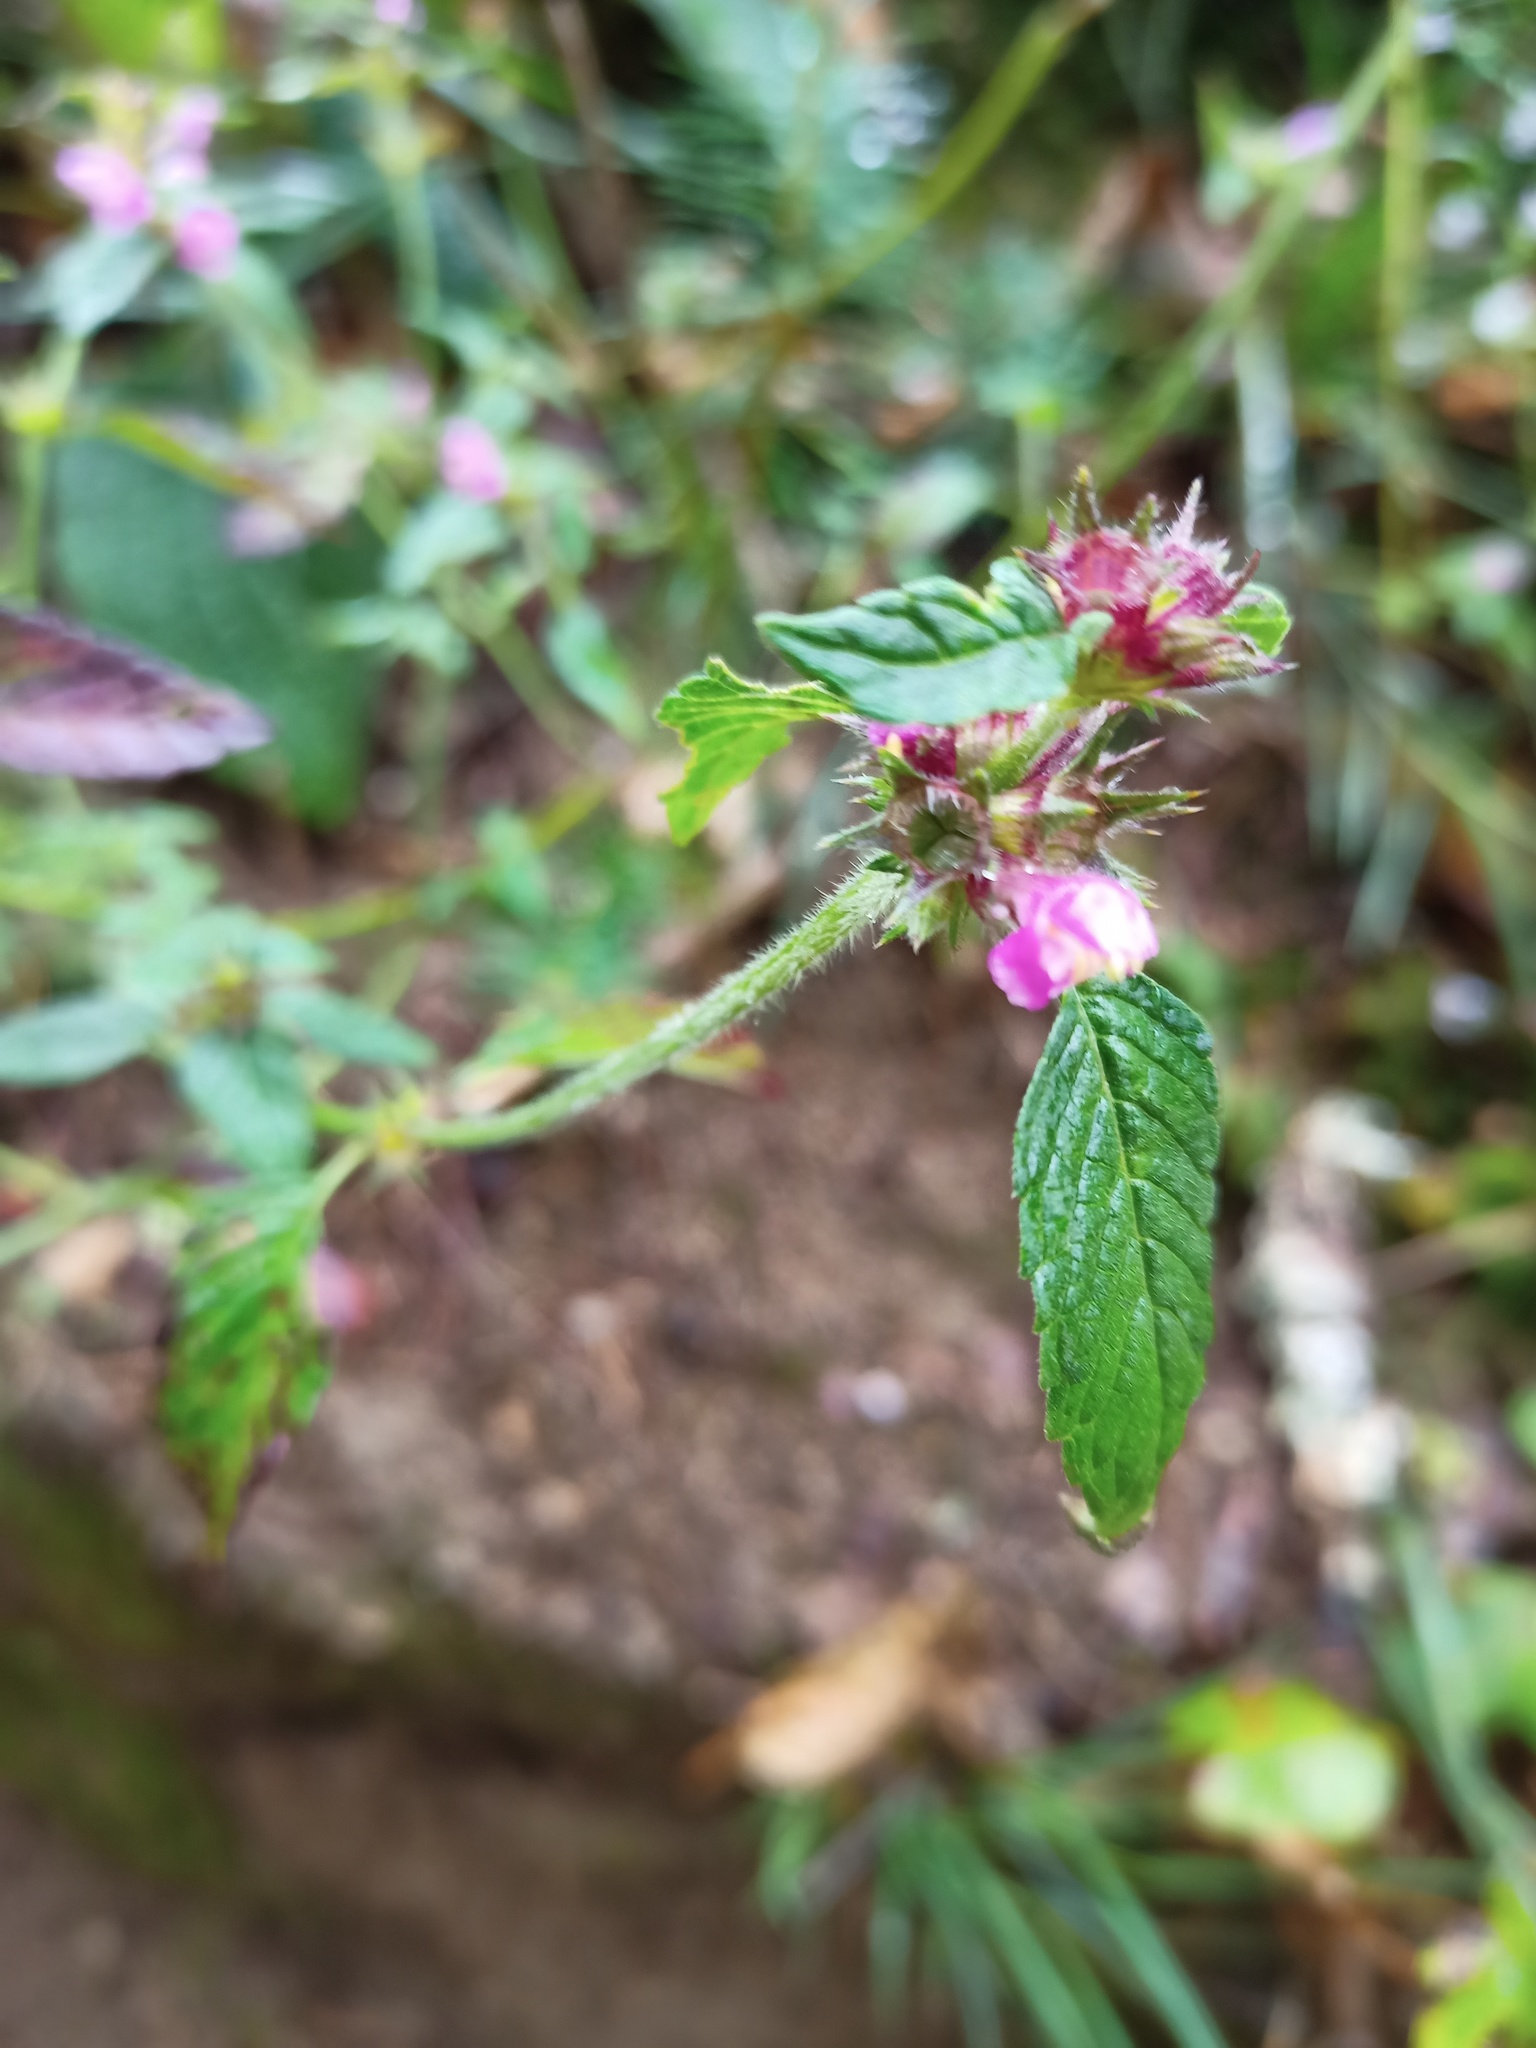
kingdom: Plantae
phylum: Tracheophyta
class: Magnoliopsida
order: Lamiales
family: Lamiaceae
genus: Galeopsis
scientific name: Galeopsis tetrahit
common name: Common hemp-nettle
